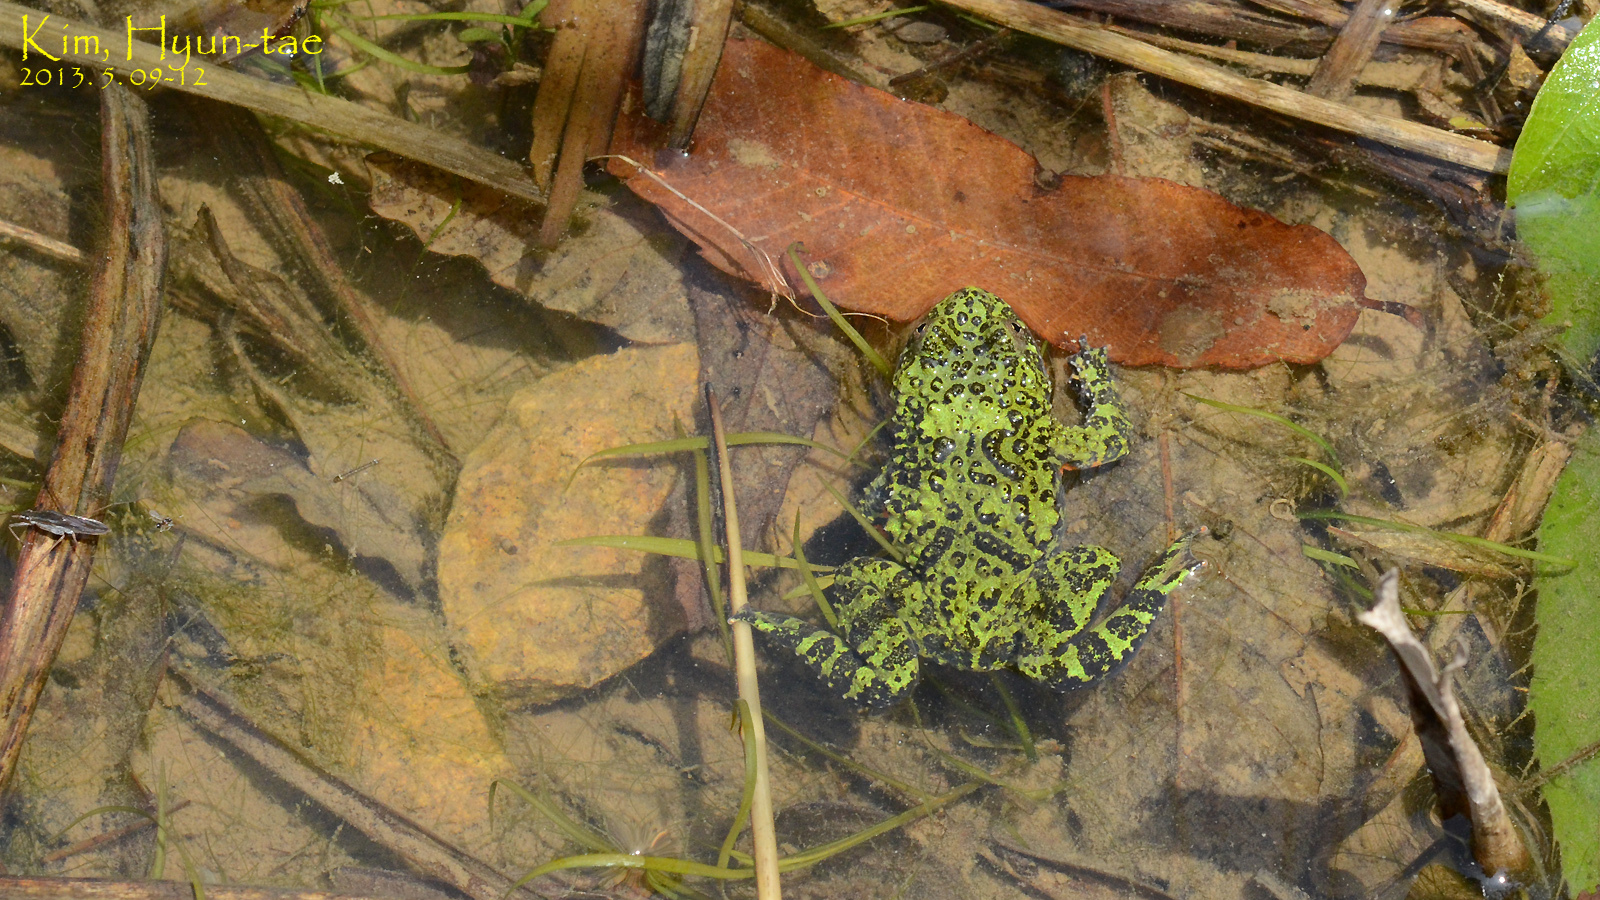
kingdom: Animalia
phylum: Chordata
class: Amphibia
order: Anura
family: Bombinatoridae
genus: Bombina
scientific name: Bombina orientalis
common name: Oriental firebelly toad
